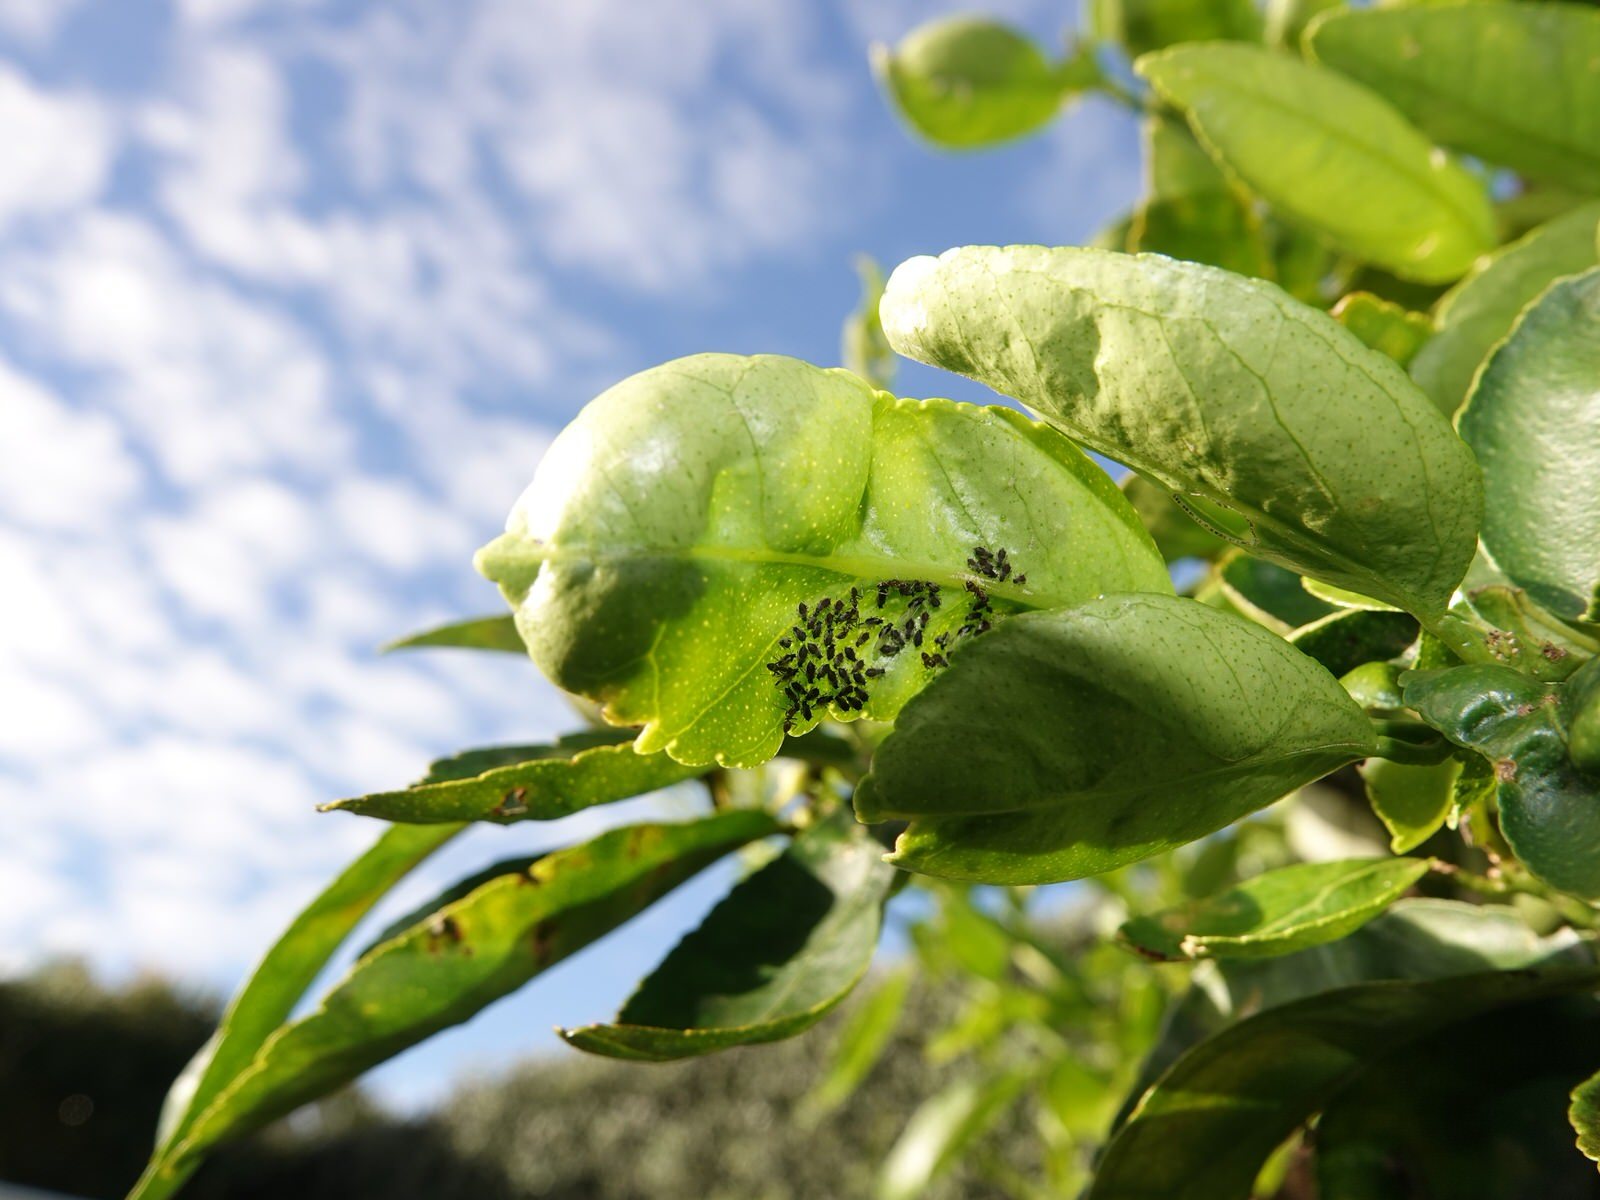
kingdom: Animalia
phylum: Arthropoda
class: Insecta
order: Hymenoptera
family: Formicidae
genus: Linepithema
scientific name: Linepithema humile
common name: Argentine ant
